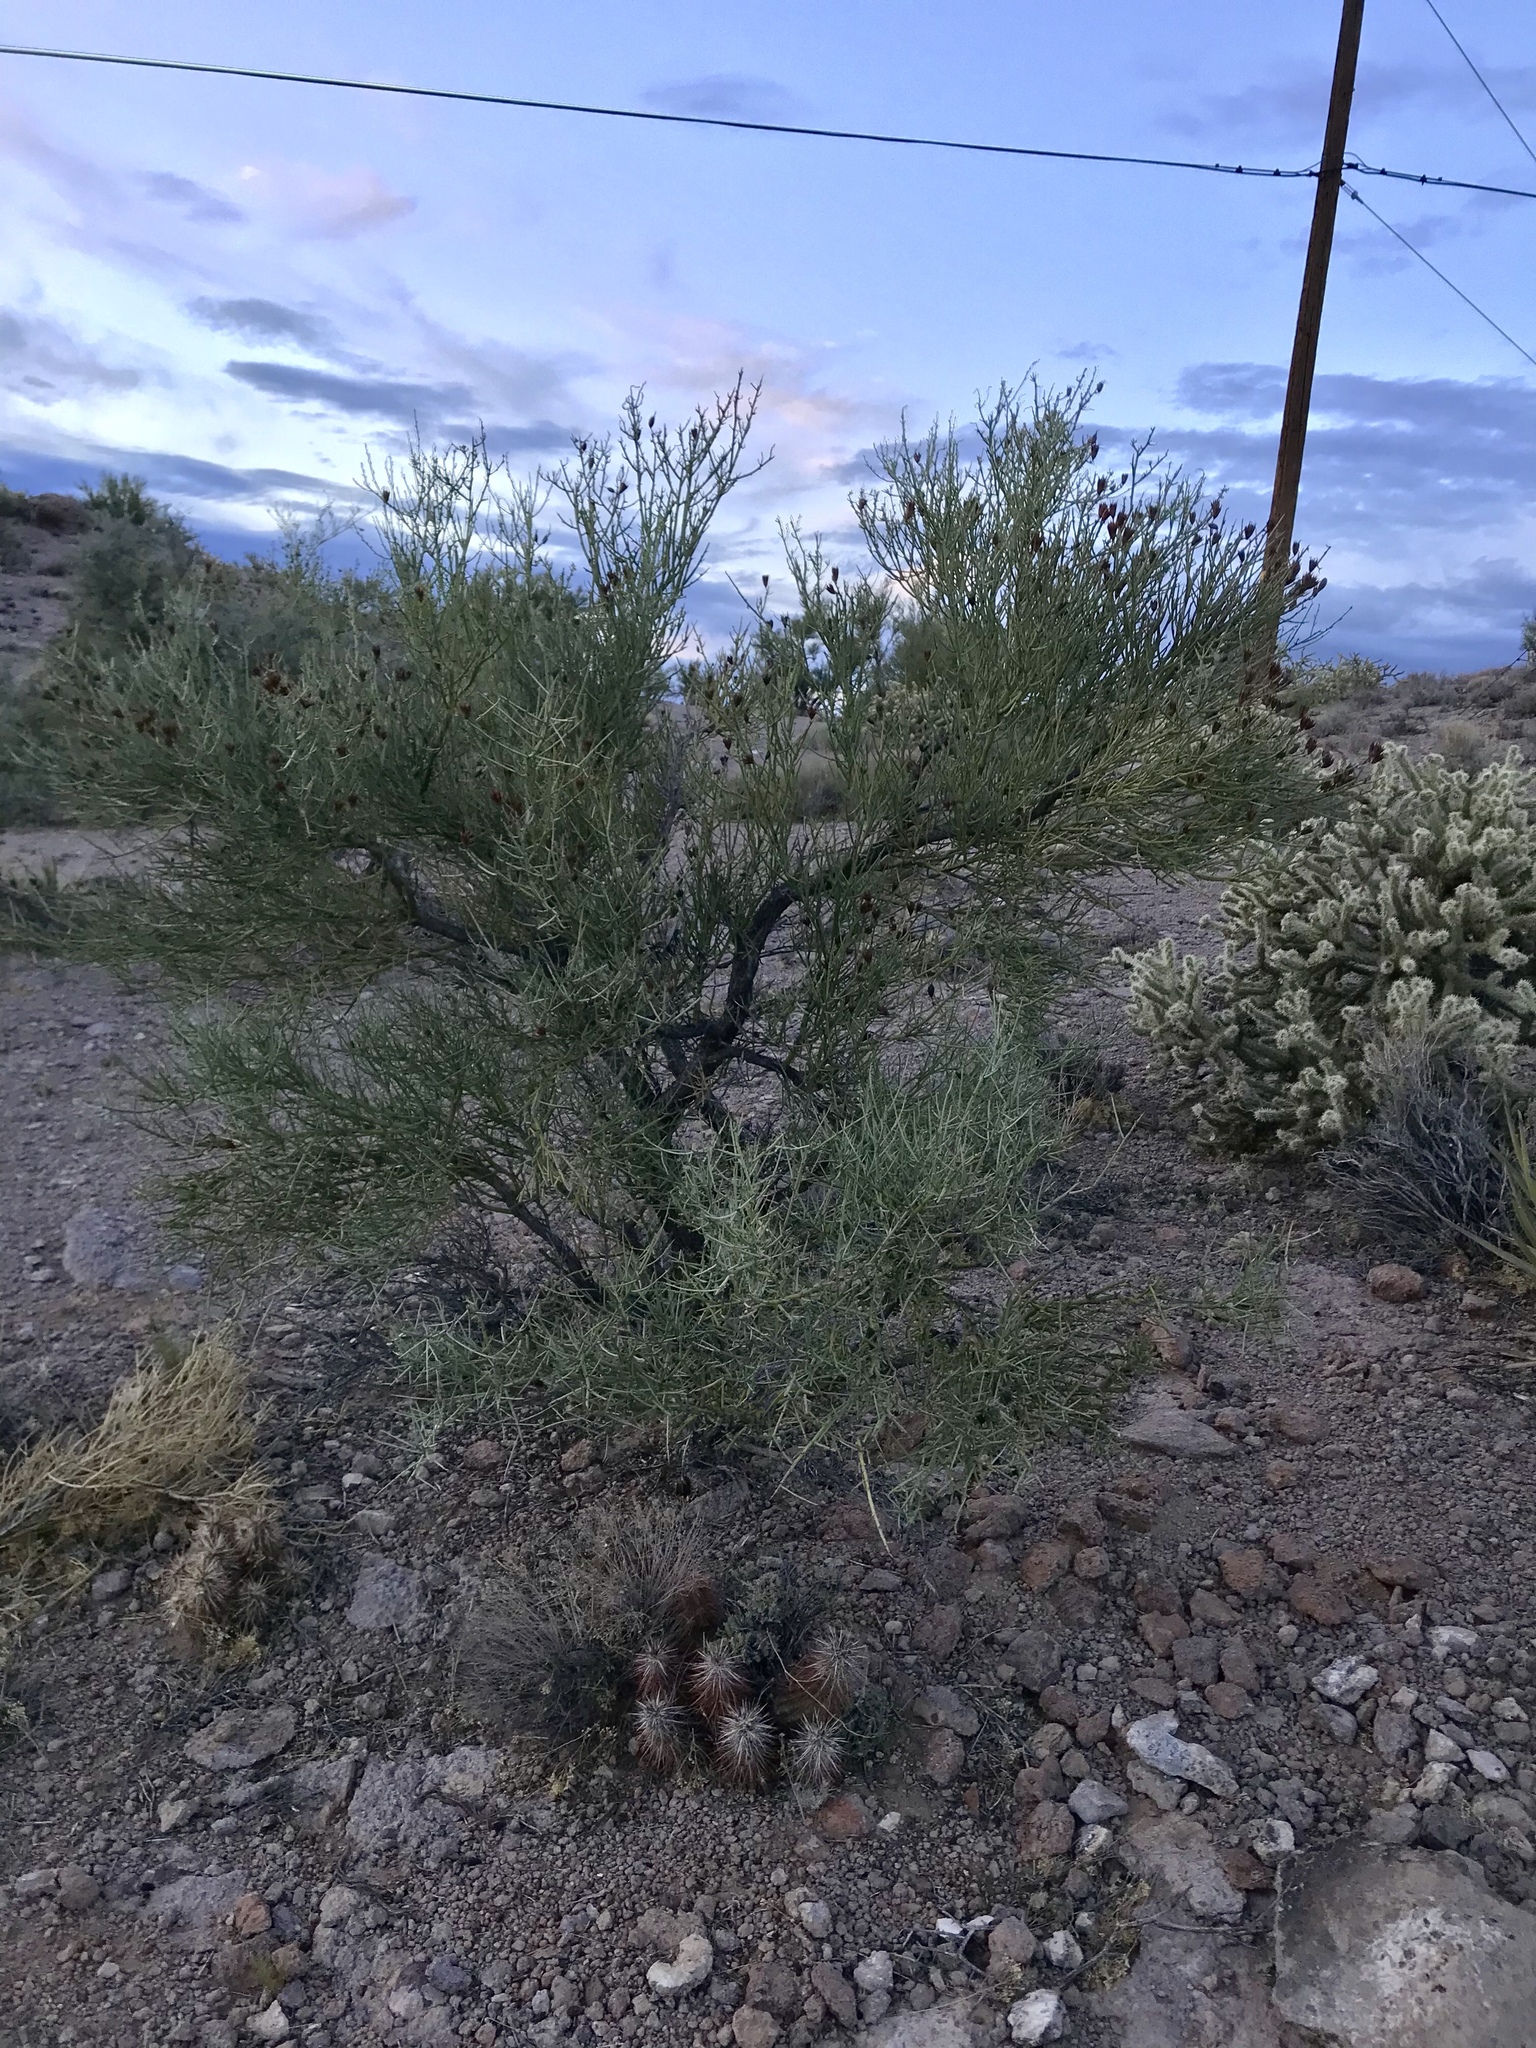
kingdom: Plantae
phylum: Tracheophyta
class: Magnoliopsida
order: Celastrales
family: Celastraceae
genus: Canotia
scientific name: Canotia holacantha
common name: Crucifixion thorns
